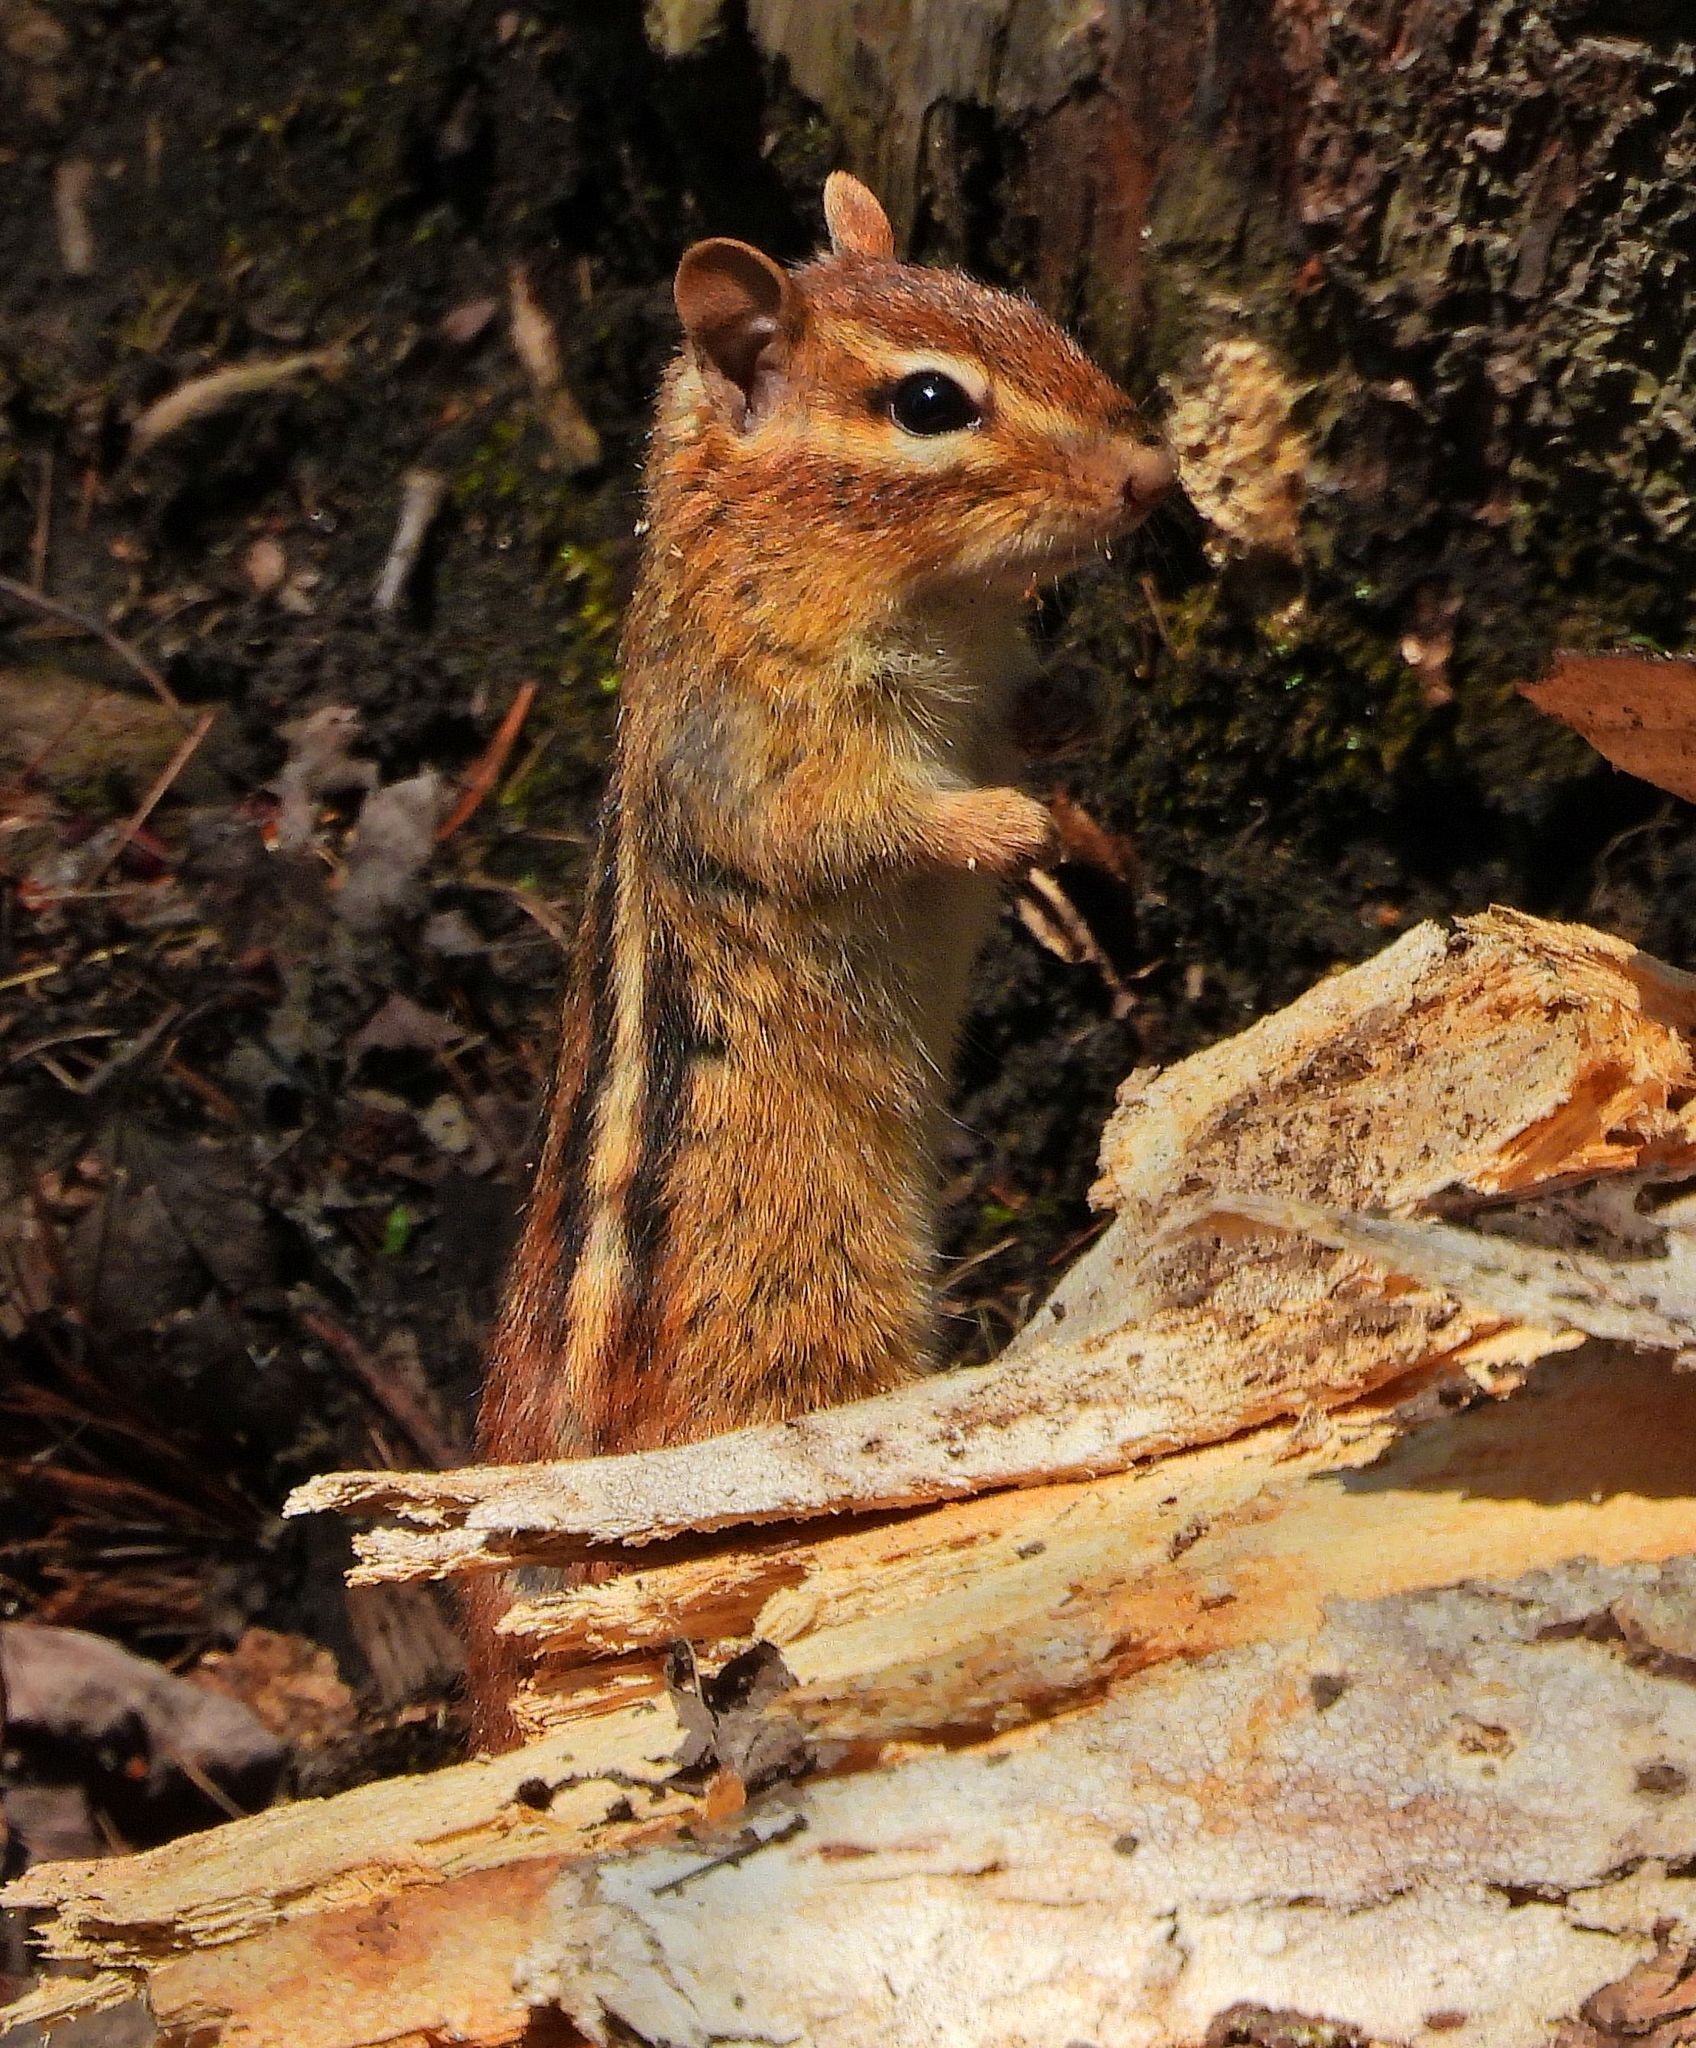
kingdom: Animalia
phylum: Chordata
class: Mammalia
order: Rodentia
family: Sciuridae
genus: Tamias
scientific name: Tamias striatus
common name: Eastern chipmunk
